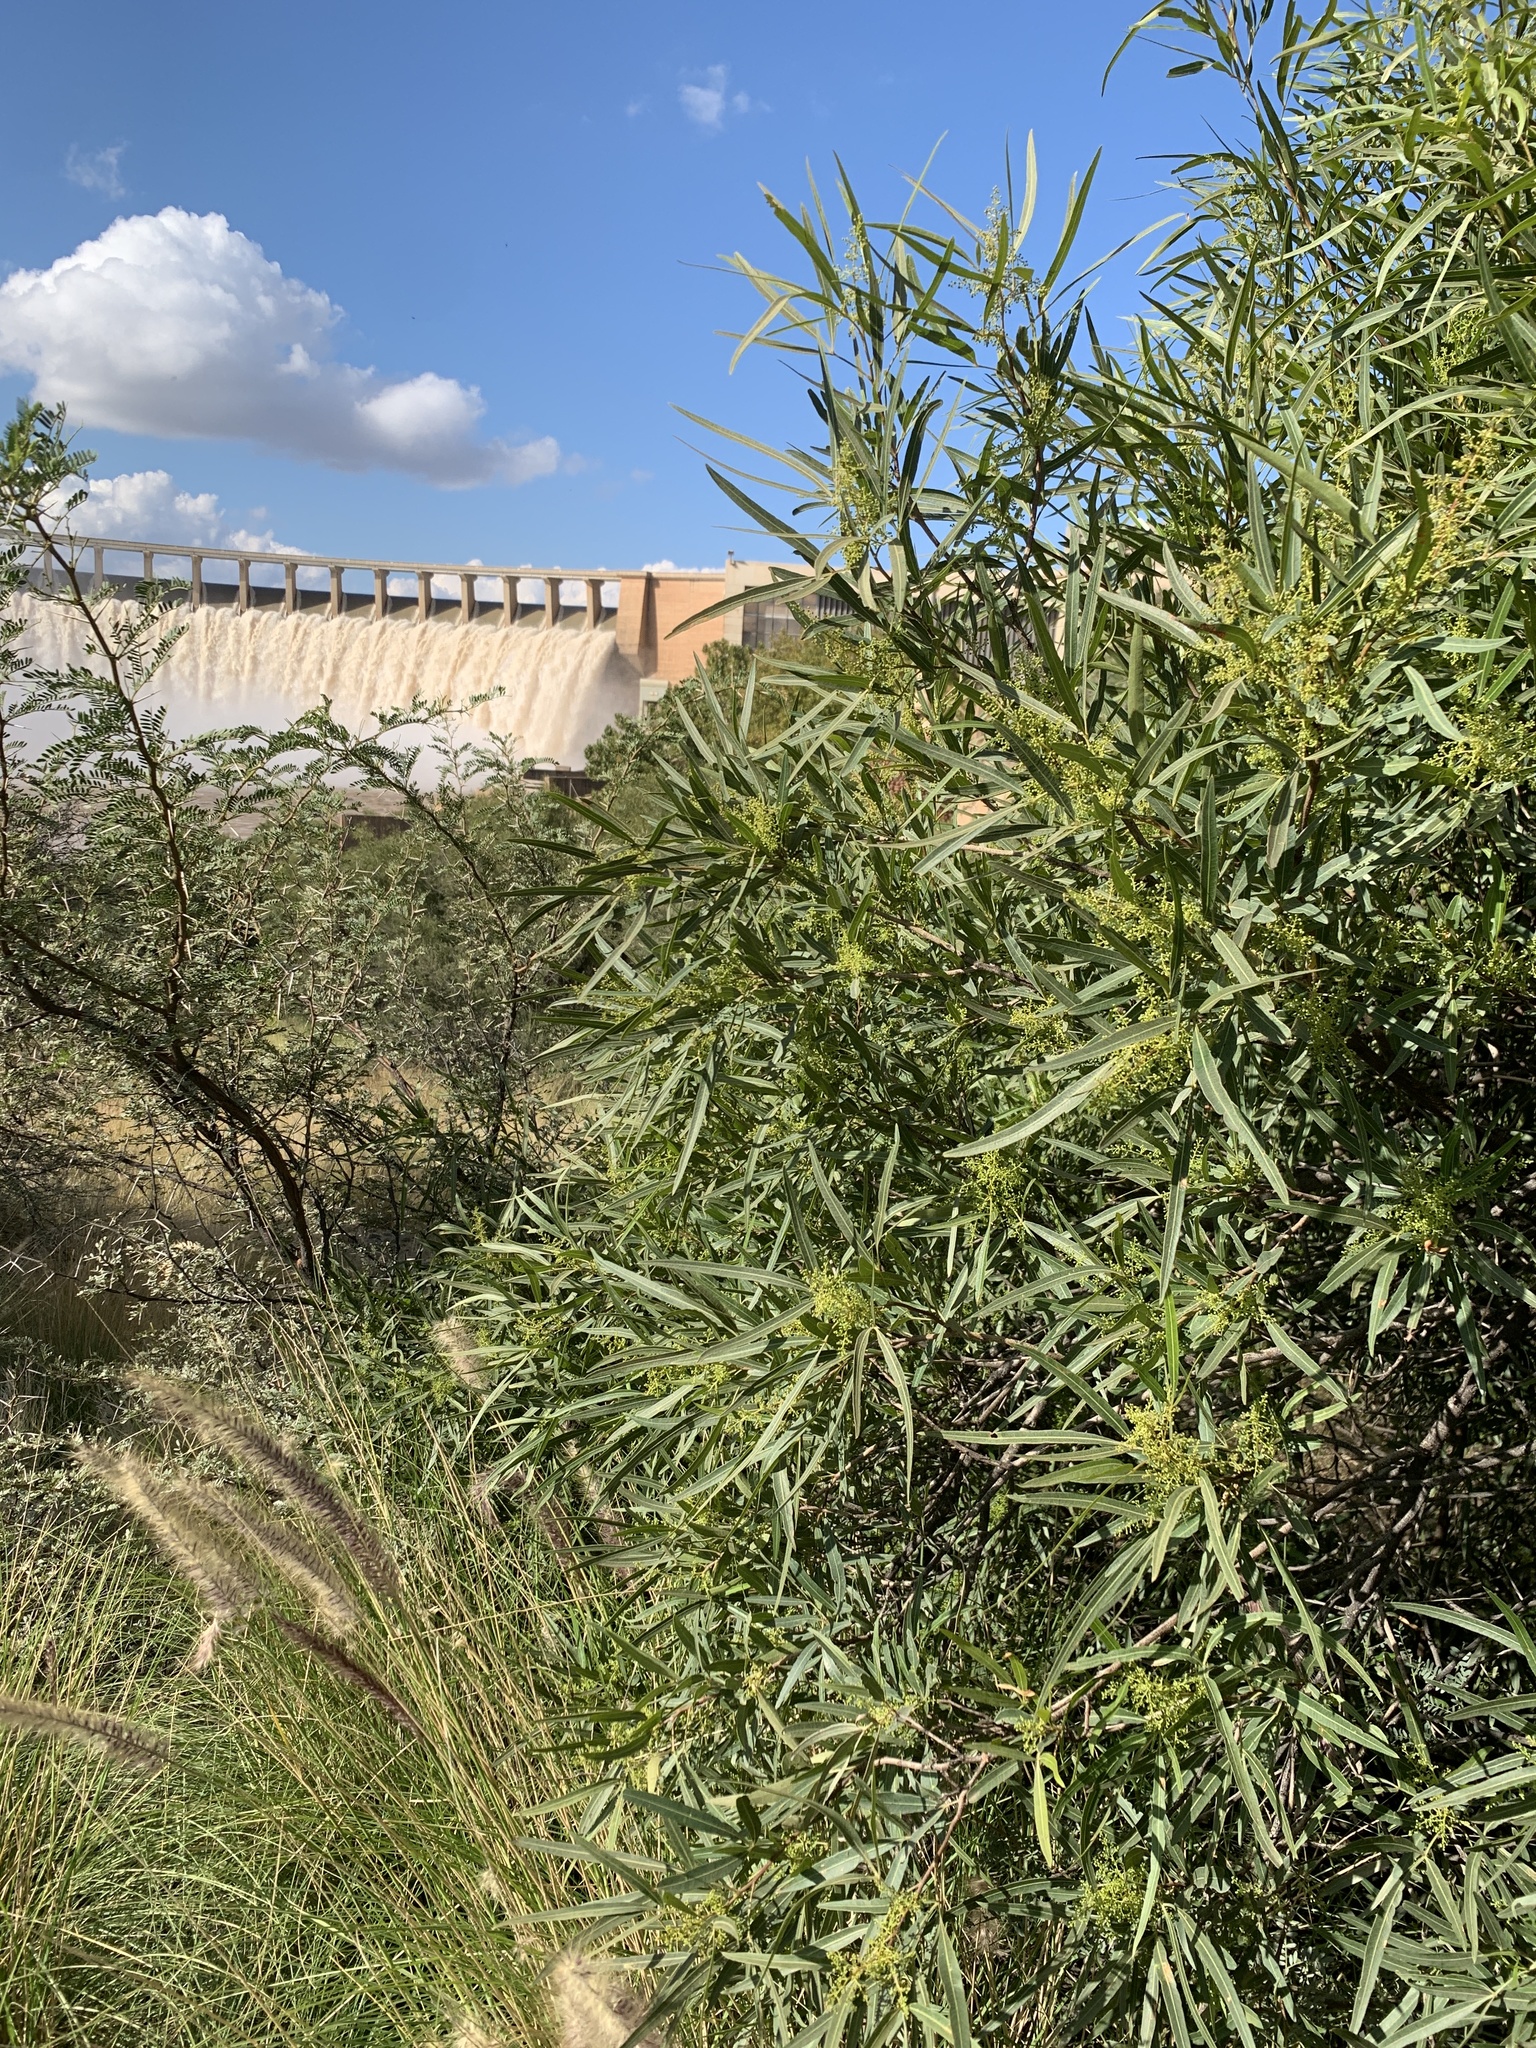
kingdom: Plantae
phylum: Tracheophyta
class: Magnoliopsida
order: Sapindales
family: Anacardiaceae
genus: Searsia
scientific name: Searsia lancea
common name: Cashew
